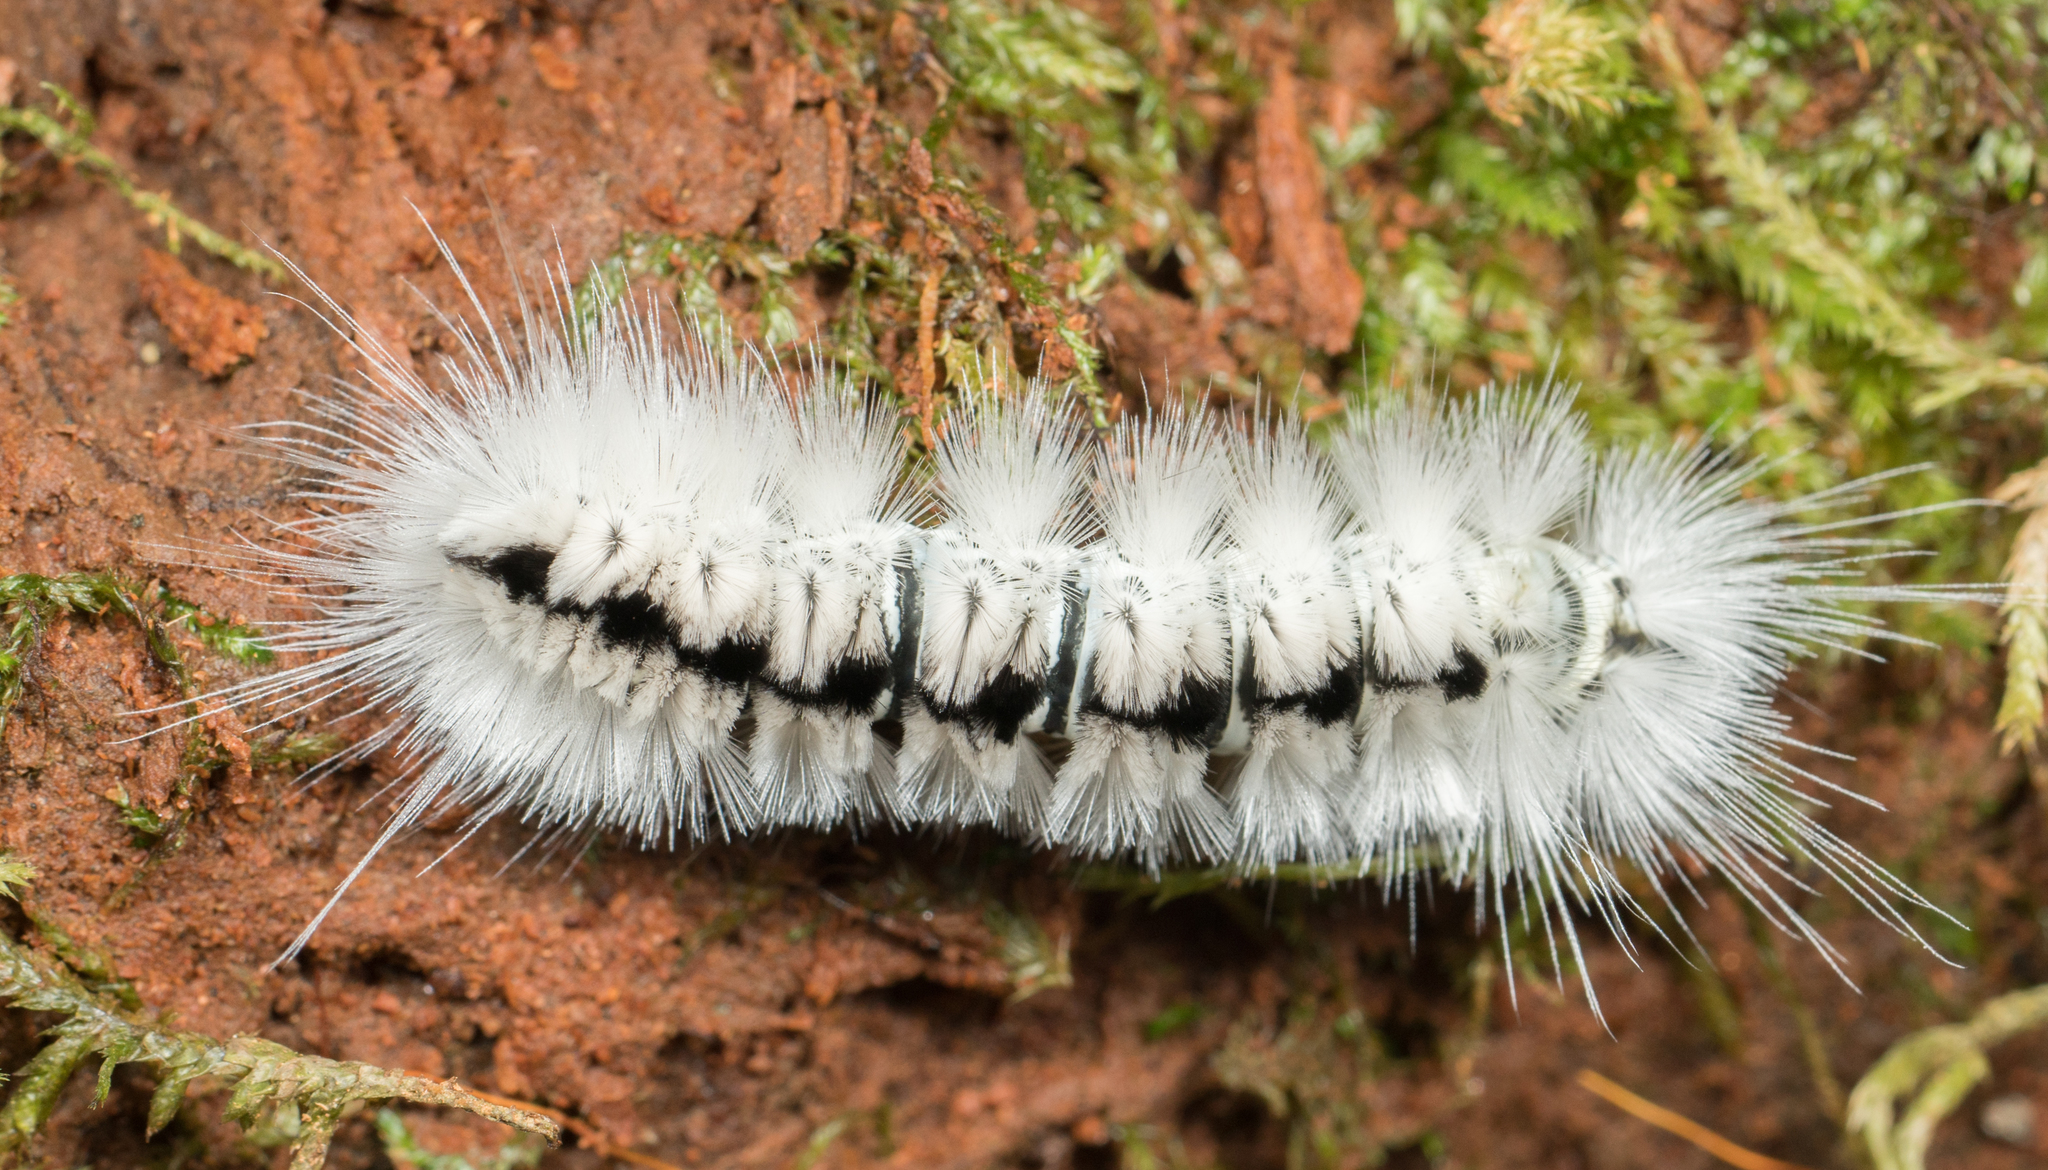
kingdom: Animalia
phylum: Arthropoda
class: Insecta
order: Lepidoptera
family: Erebidae
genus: Lophocampa
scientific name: Lophocampa caryae
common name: Hickory tussock moth
